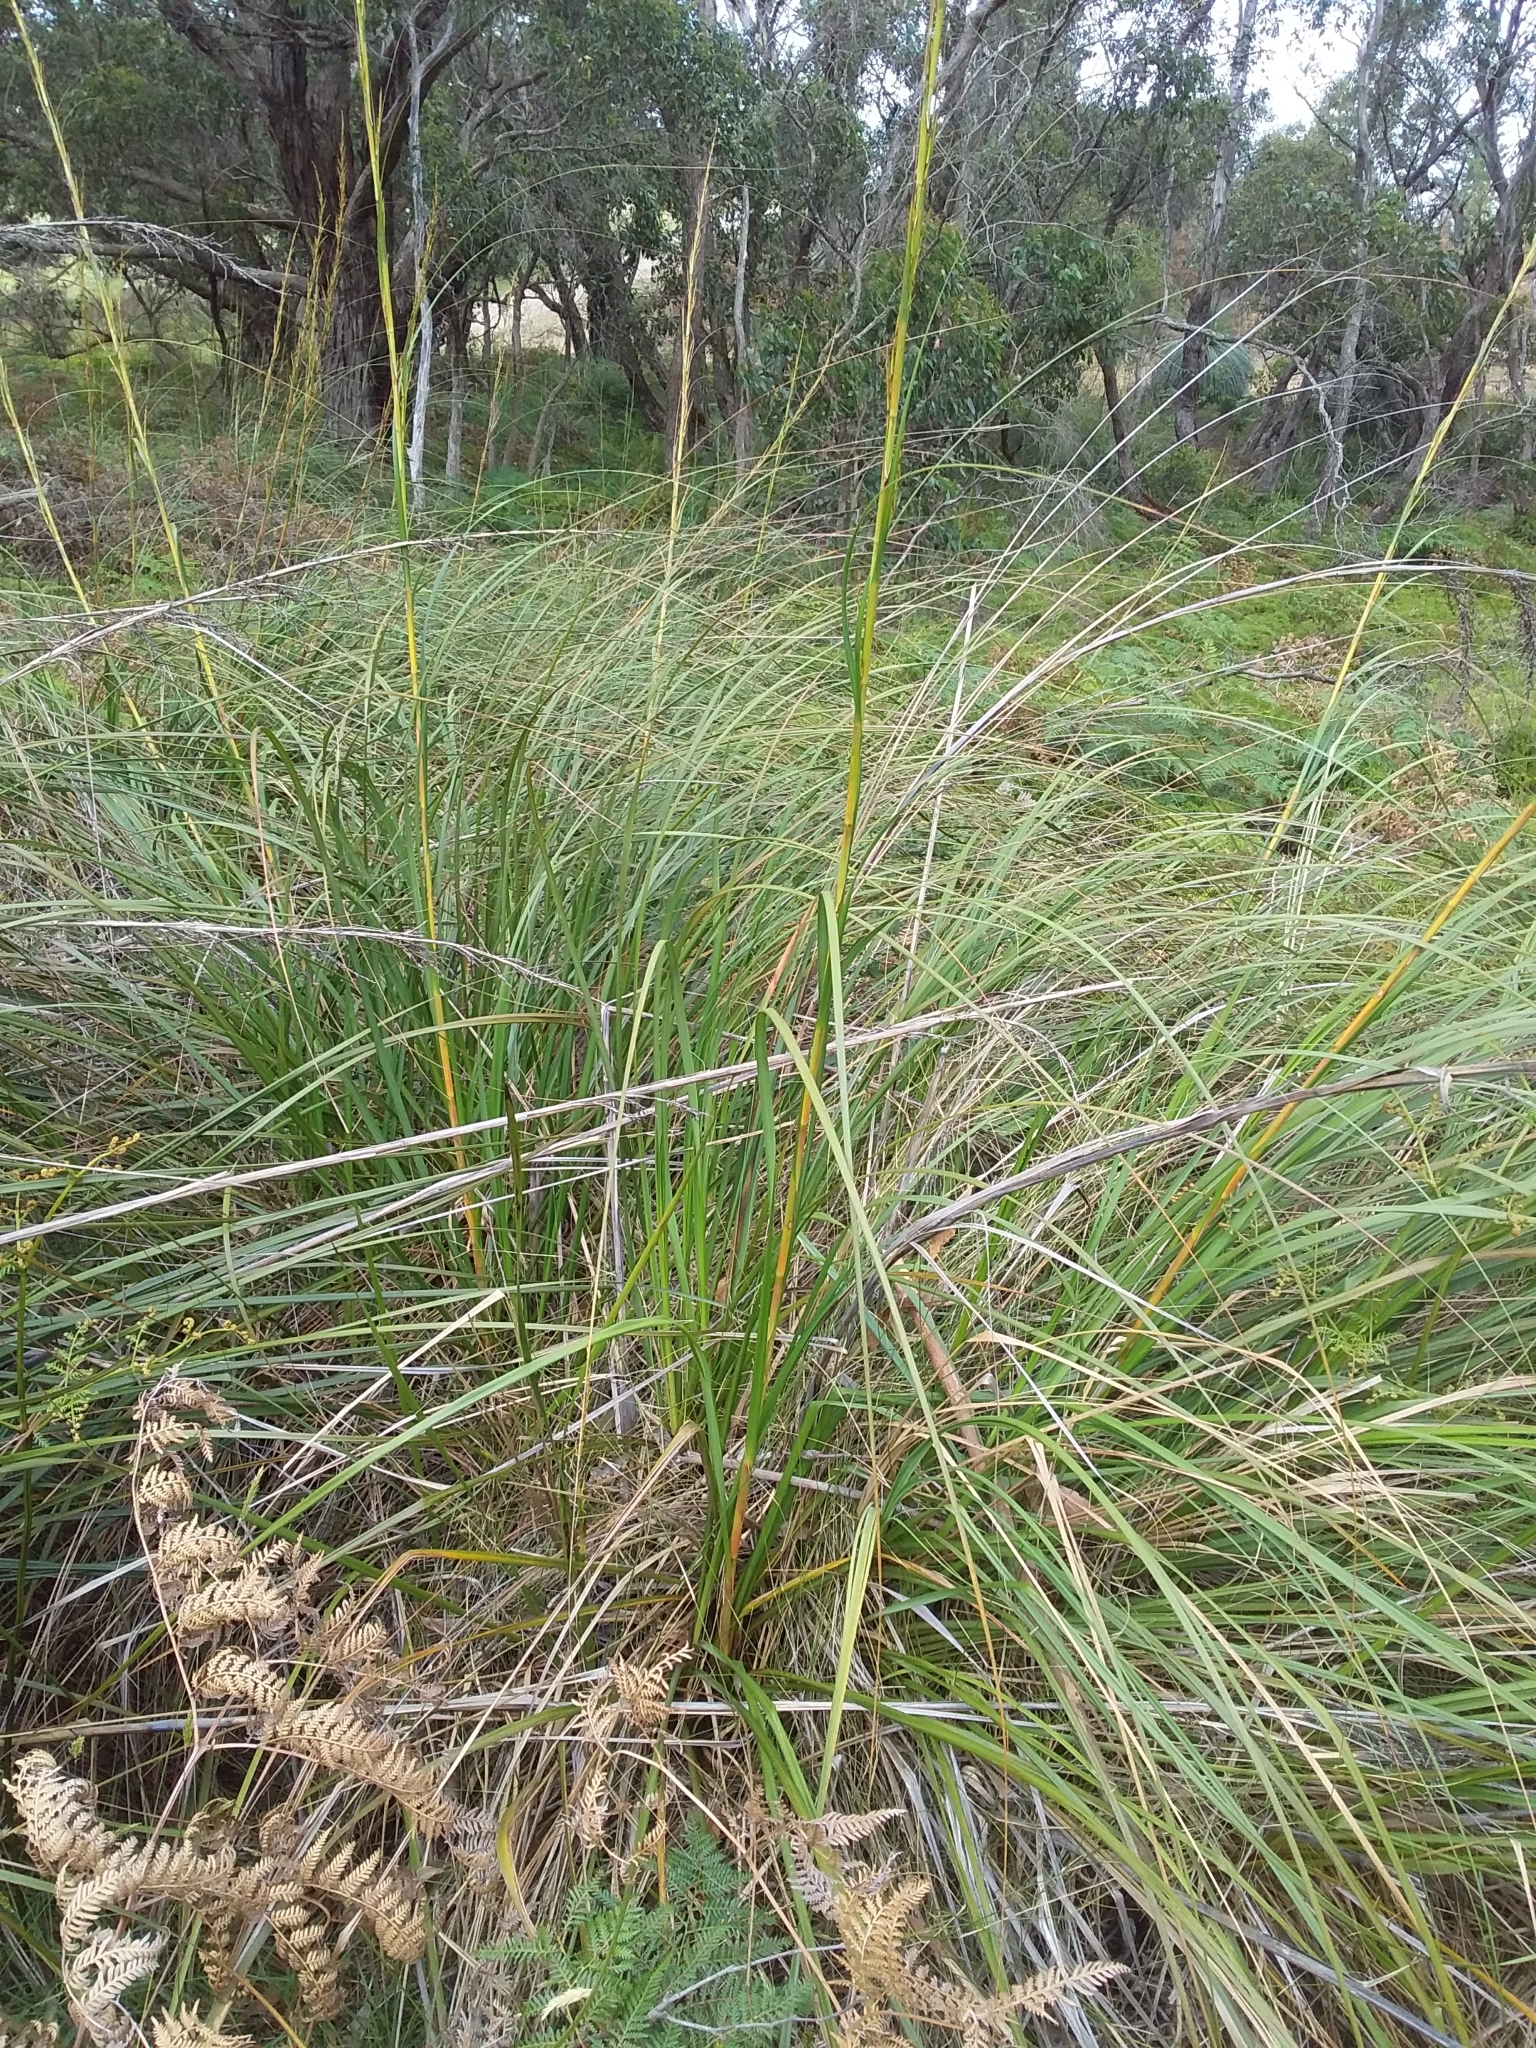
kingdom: Plantae
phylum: Tracheophyta
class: Liliopsida
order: Poales
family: Cyperaceae
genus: Gahnia
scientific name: Gahnia sieberiana
